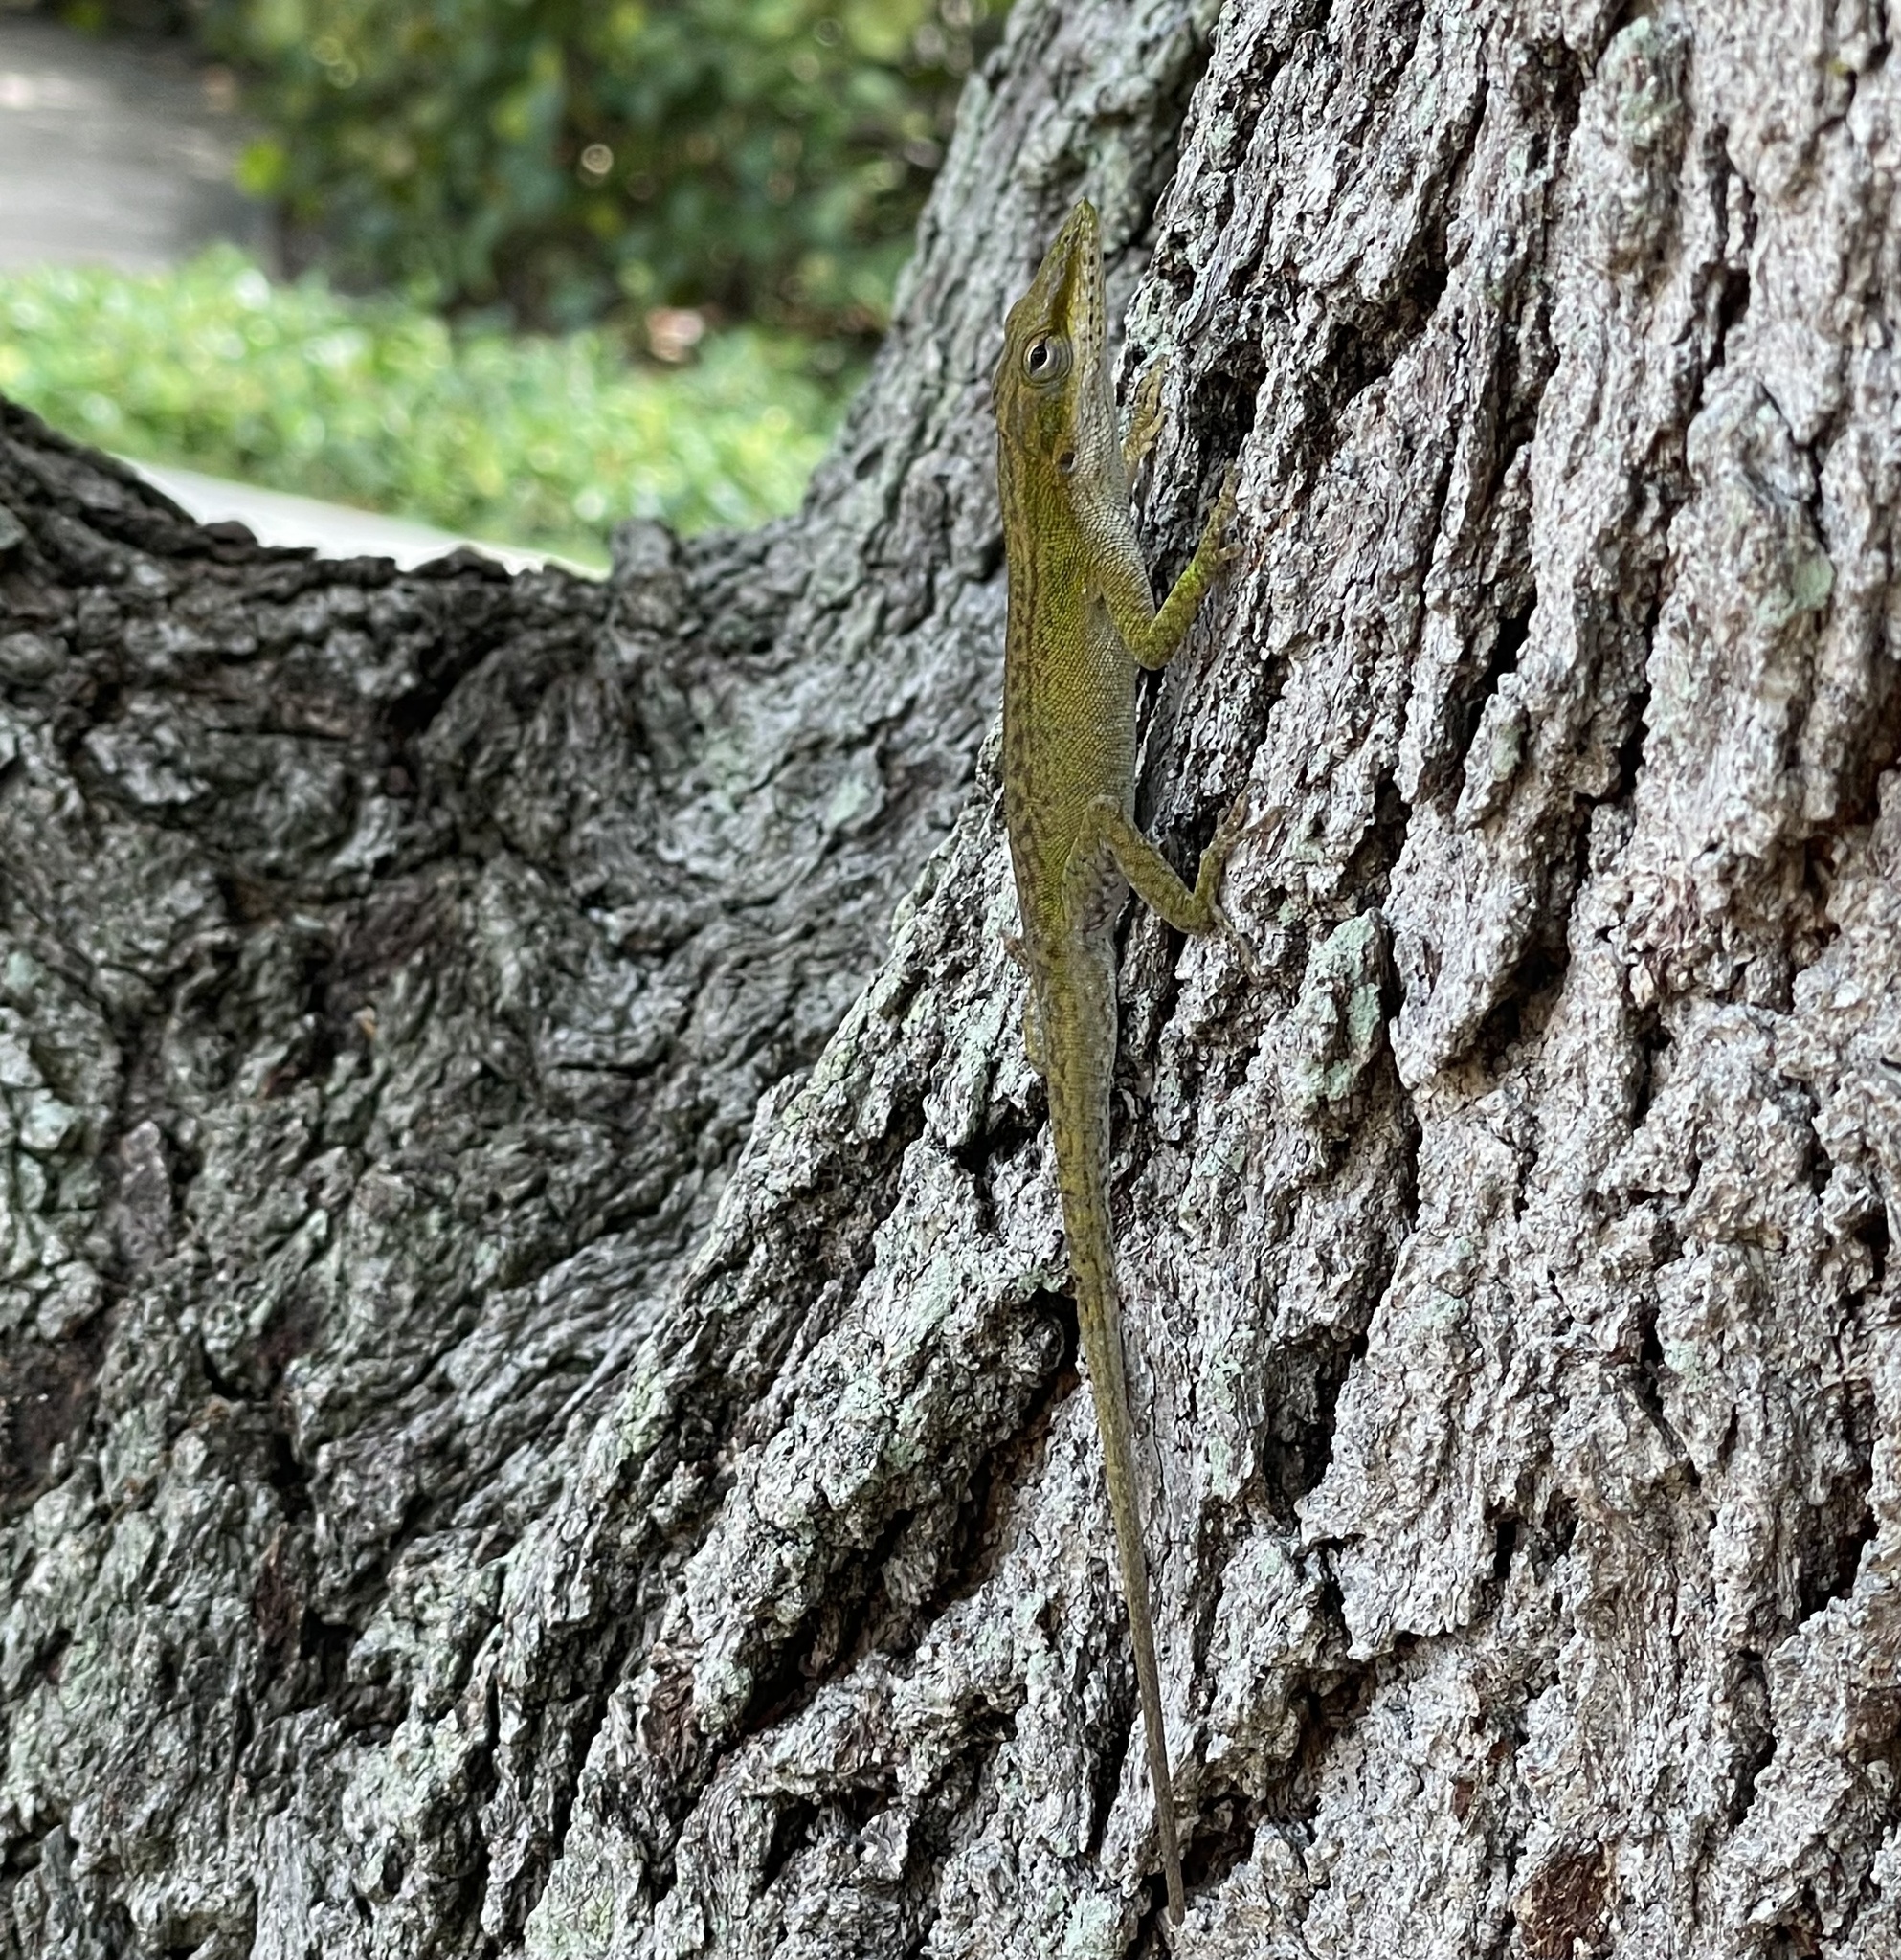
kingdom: Animalia
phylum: Chordata
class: Squamata
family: Dactyloidae
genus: Anolis
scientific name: Anolis carolinensis
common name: Green anole
